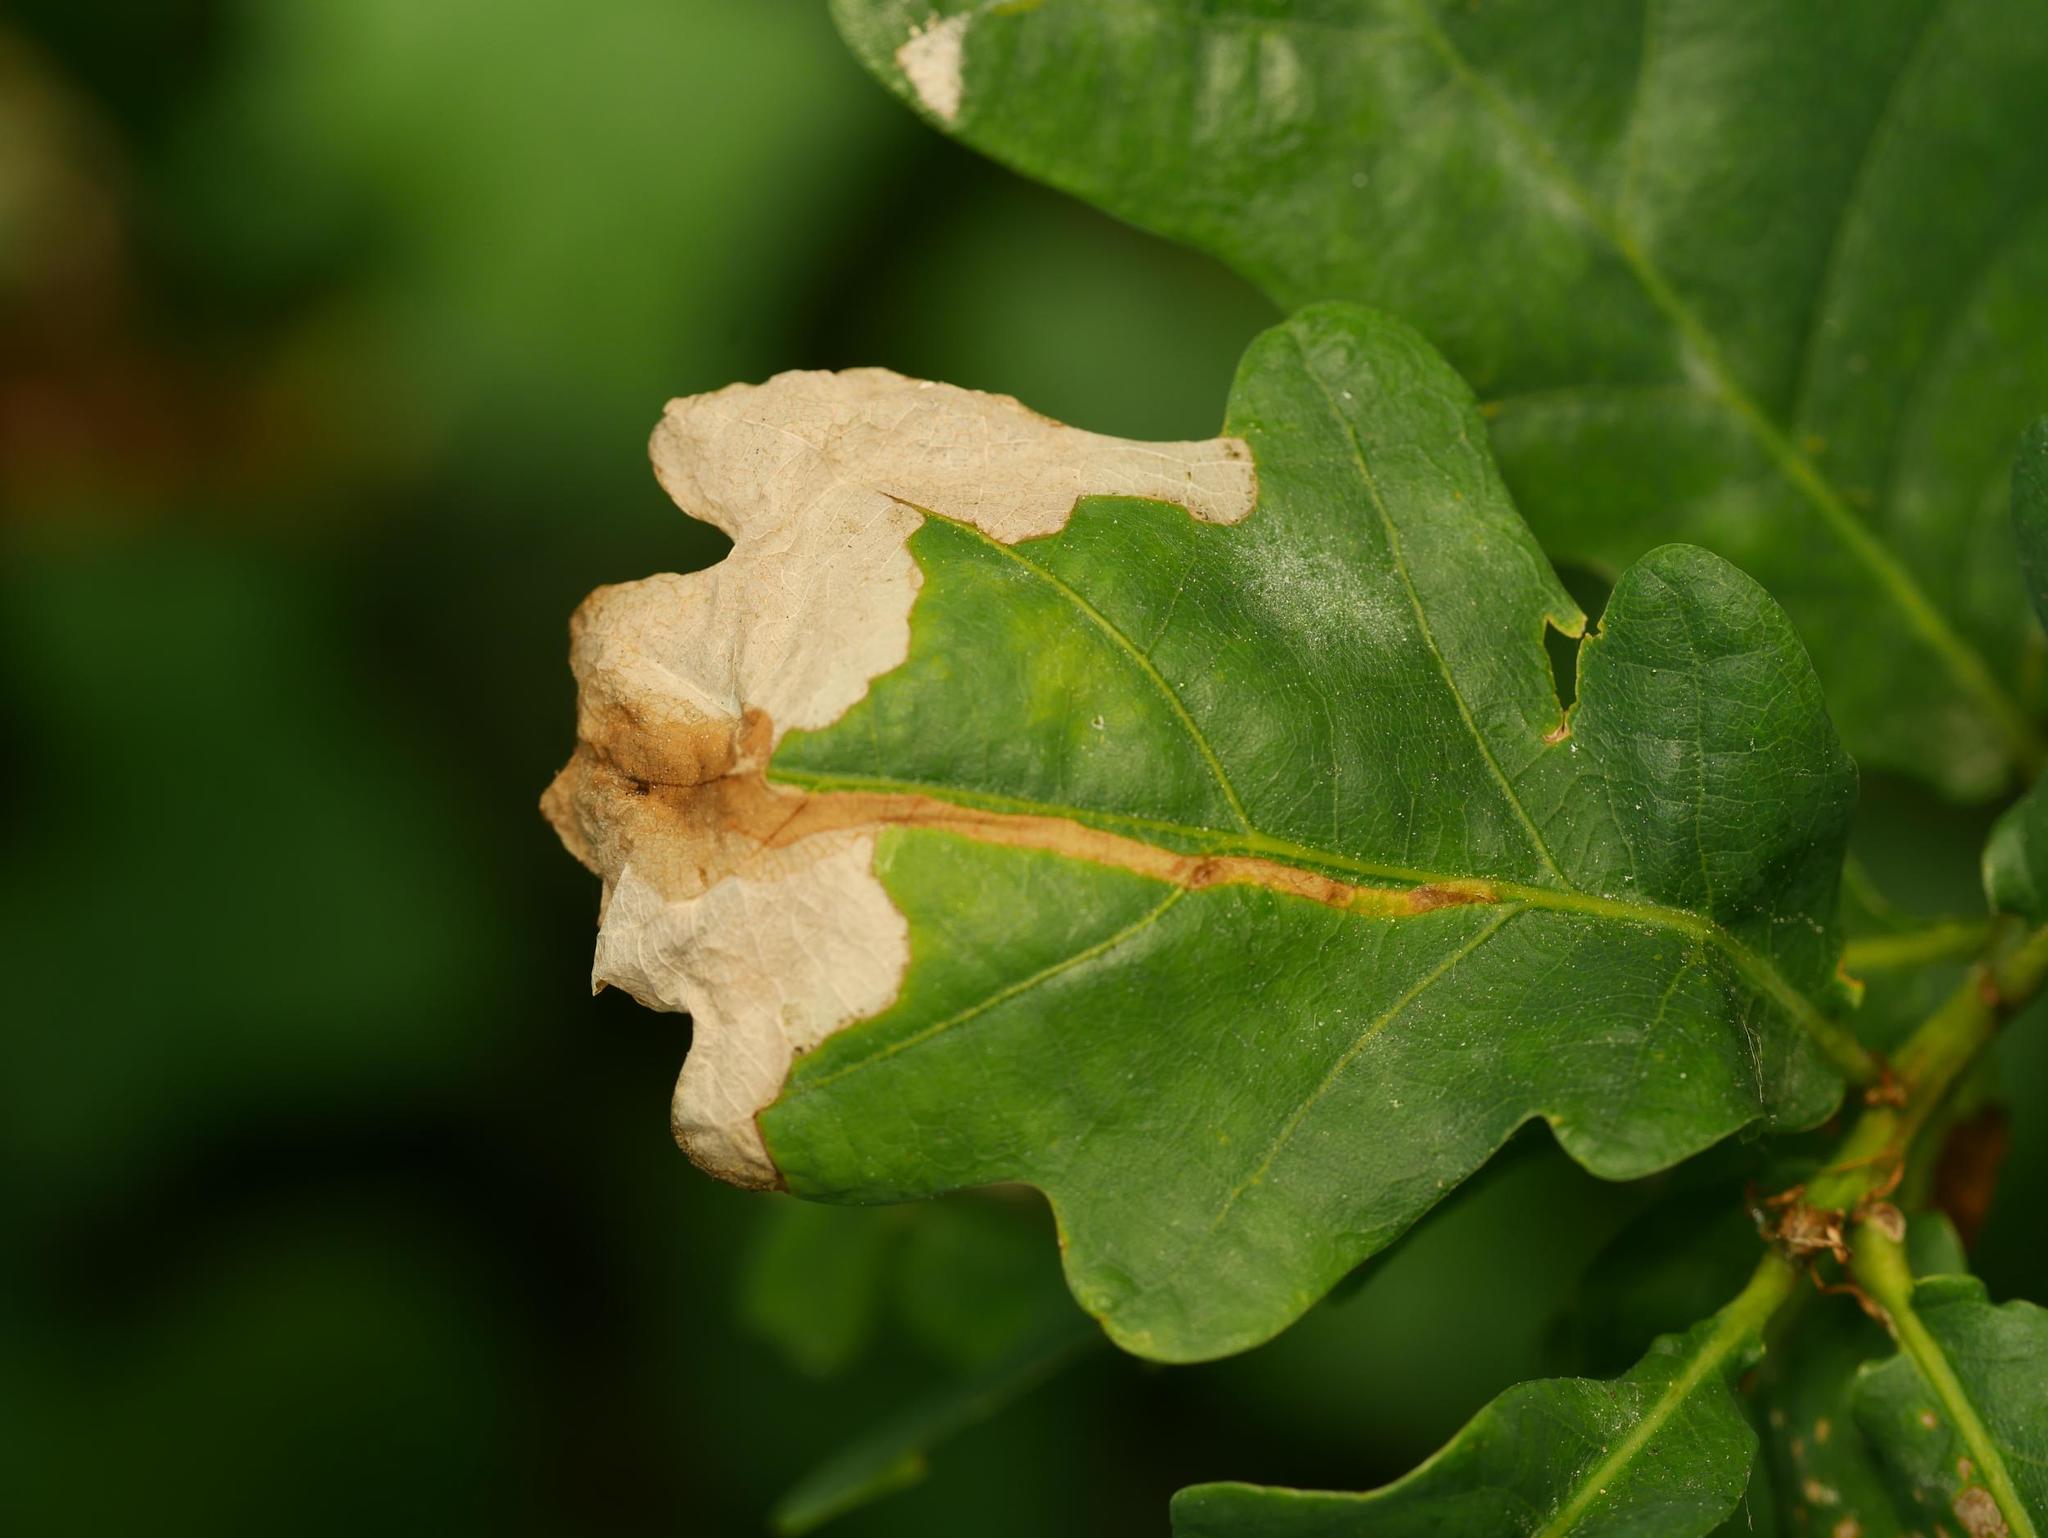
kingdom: Animalia
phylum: Arthropoda
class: Insecta
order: Coleoptera
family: Curculionidae
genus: Orchestes
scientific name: Orchestes quercus
